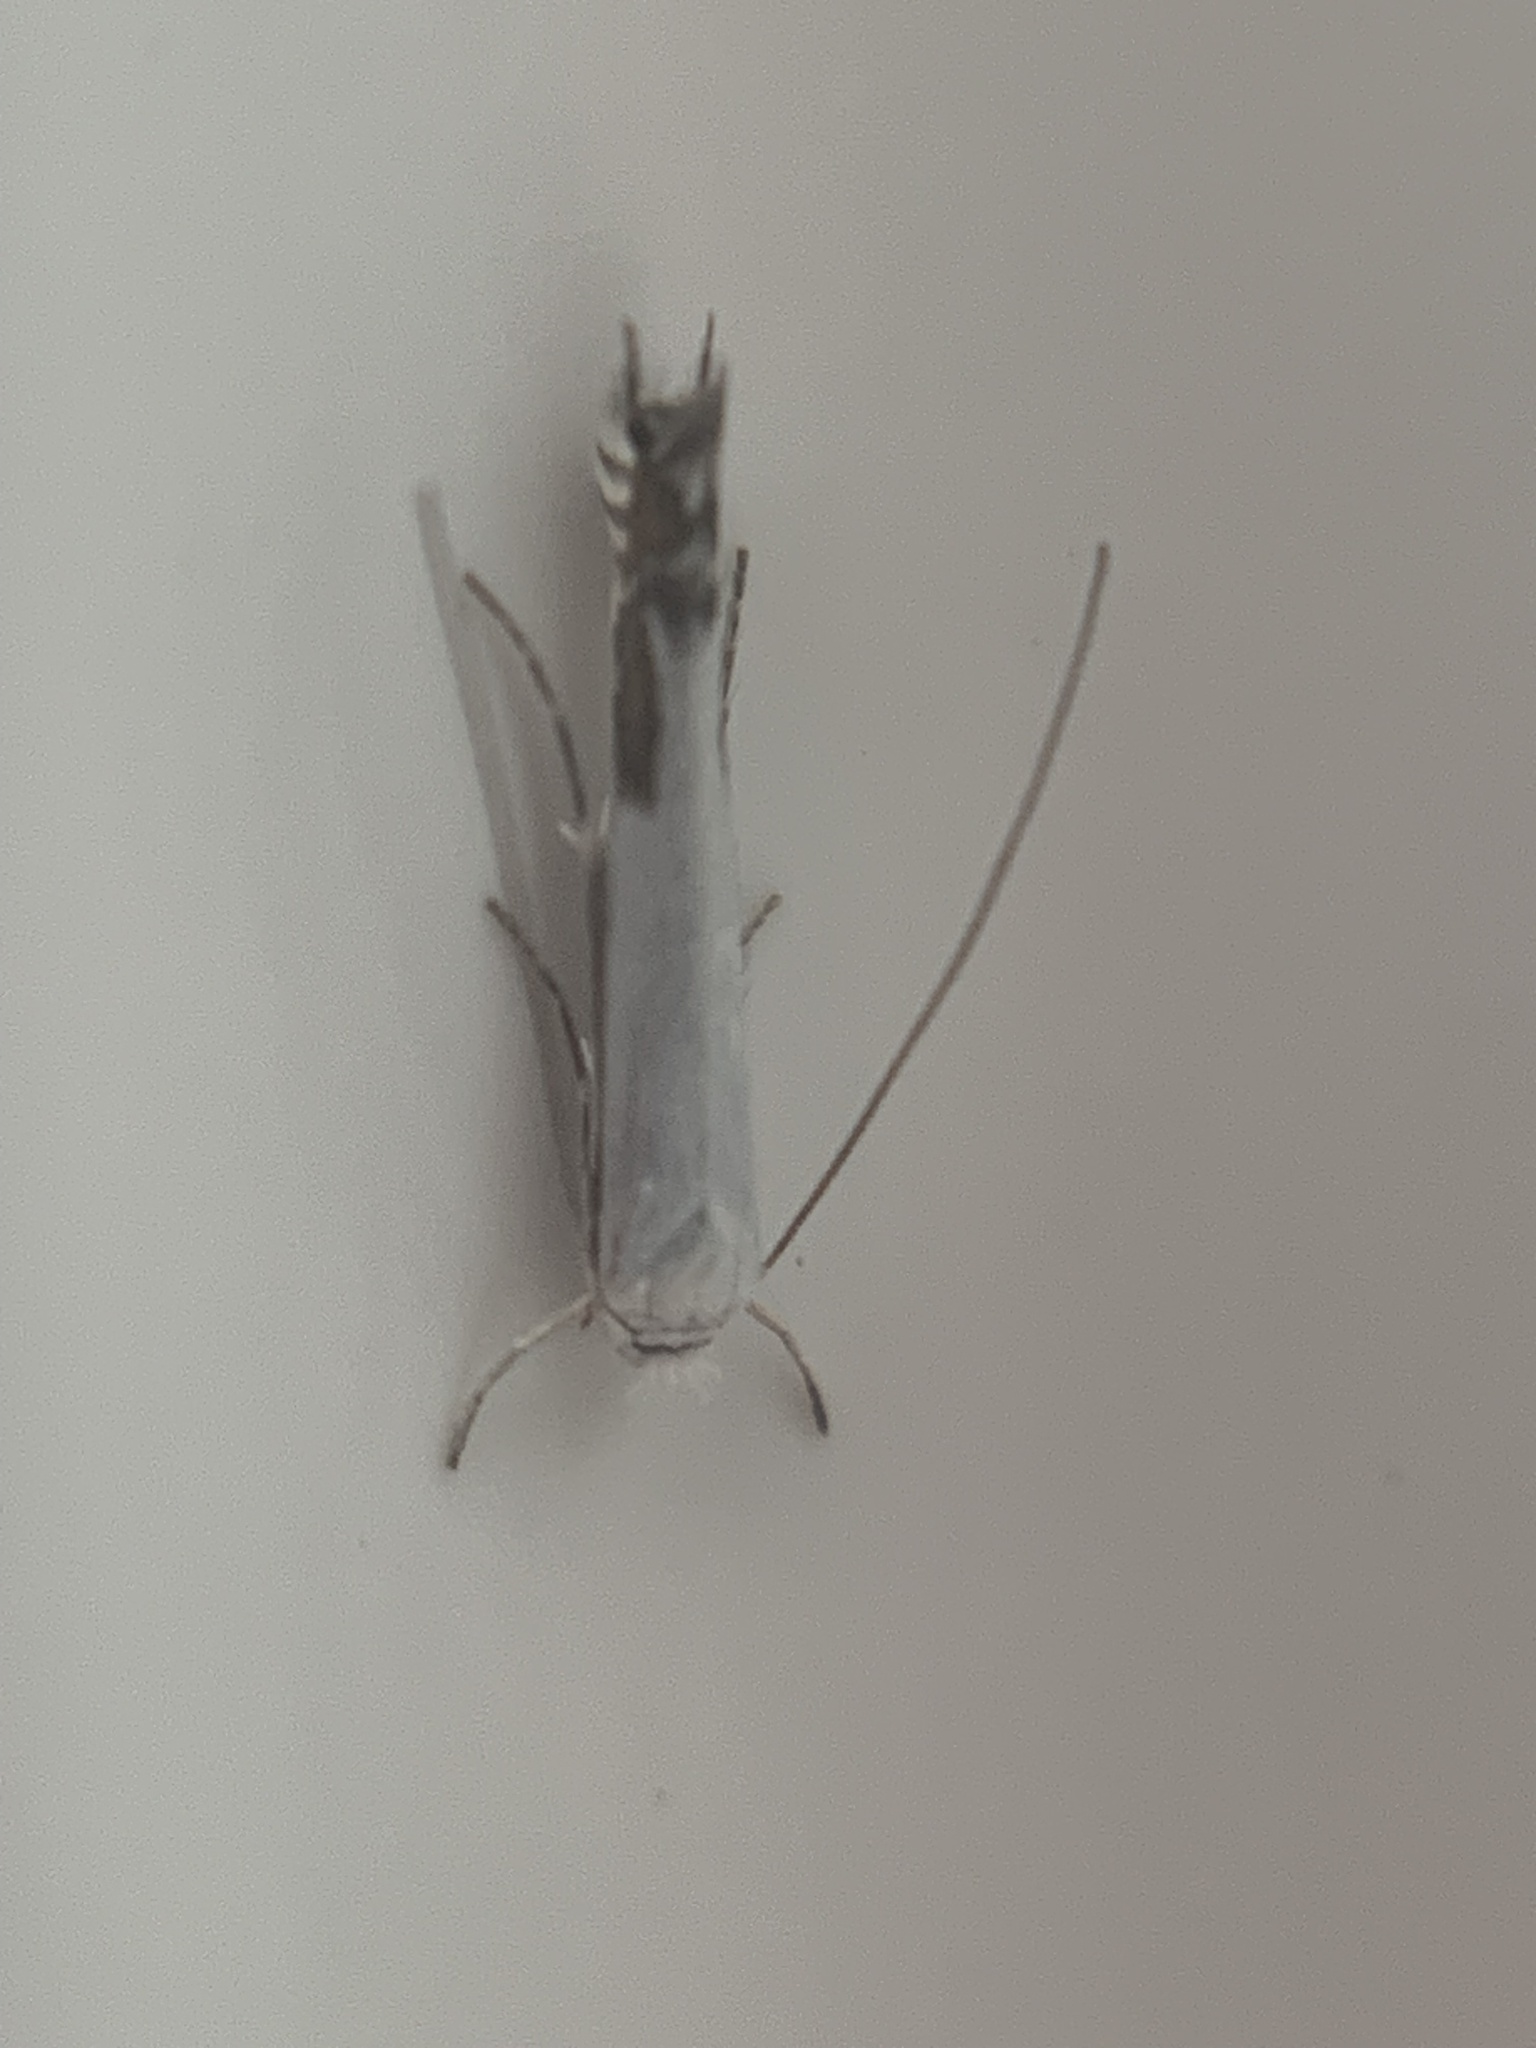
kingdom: Animalia
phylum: Arthropoda
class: Insecta
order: Lepidoptera
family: Lyonetiidae
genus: Lyonetia
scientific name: Lyonetia clerkella
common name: Apple leaf miner
